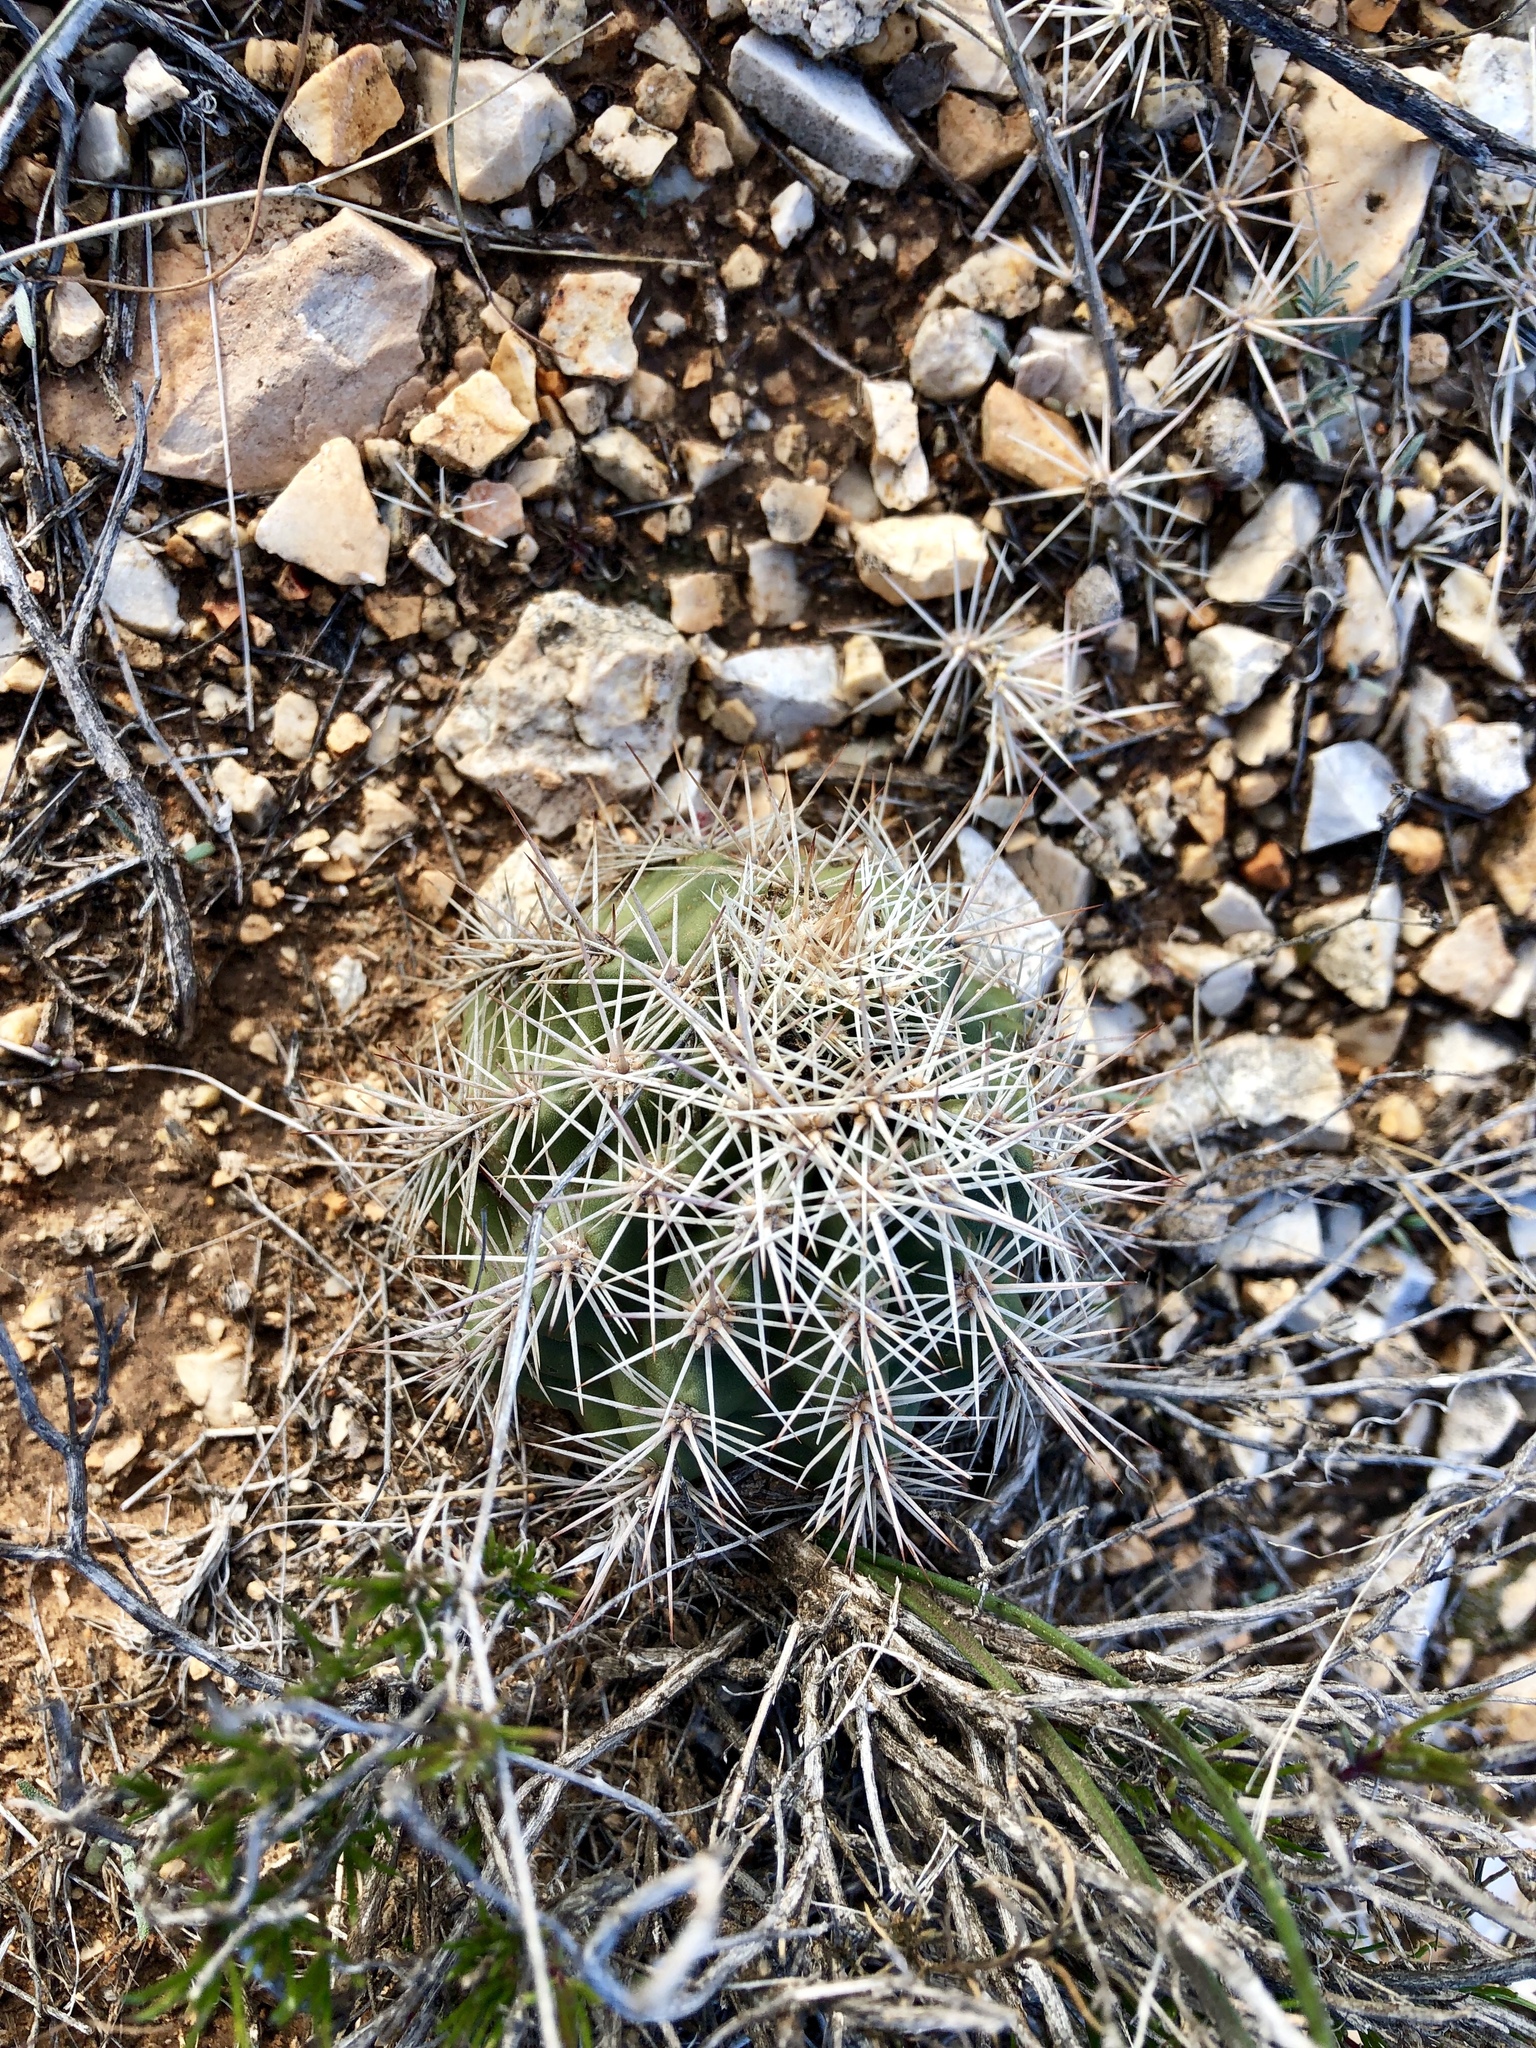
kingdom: Plantae
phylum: Tracheophyta
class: Magnoliopsida
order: Caryophyllales
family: Cactaceae
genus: Echinocereus
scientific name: Echinocereus roetteri
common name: Lloyd's hedgehog cactus
